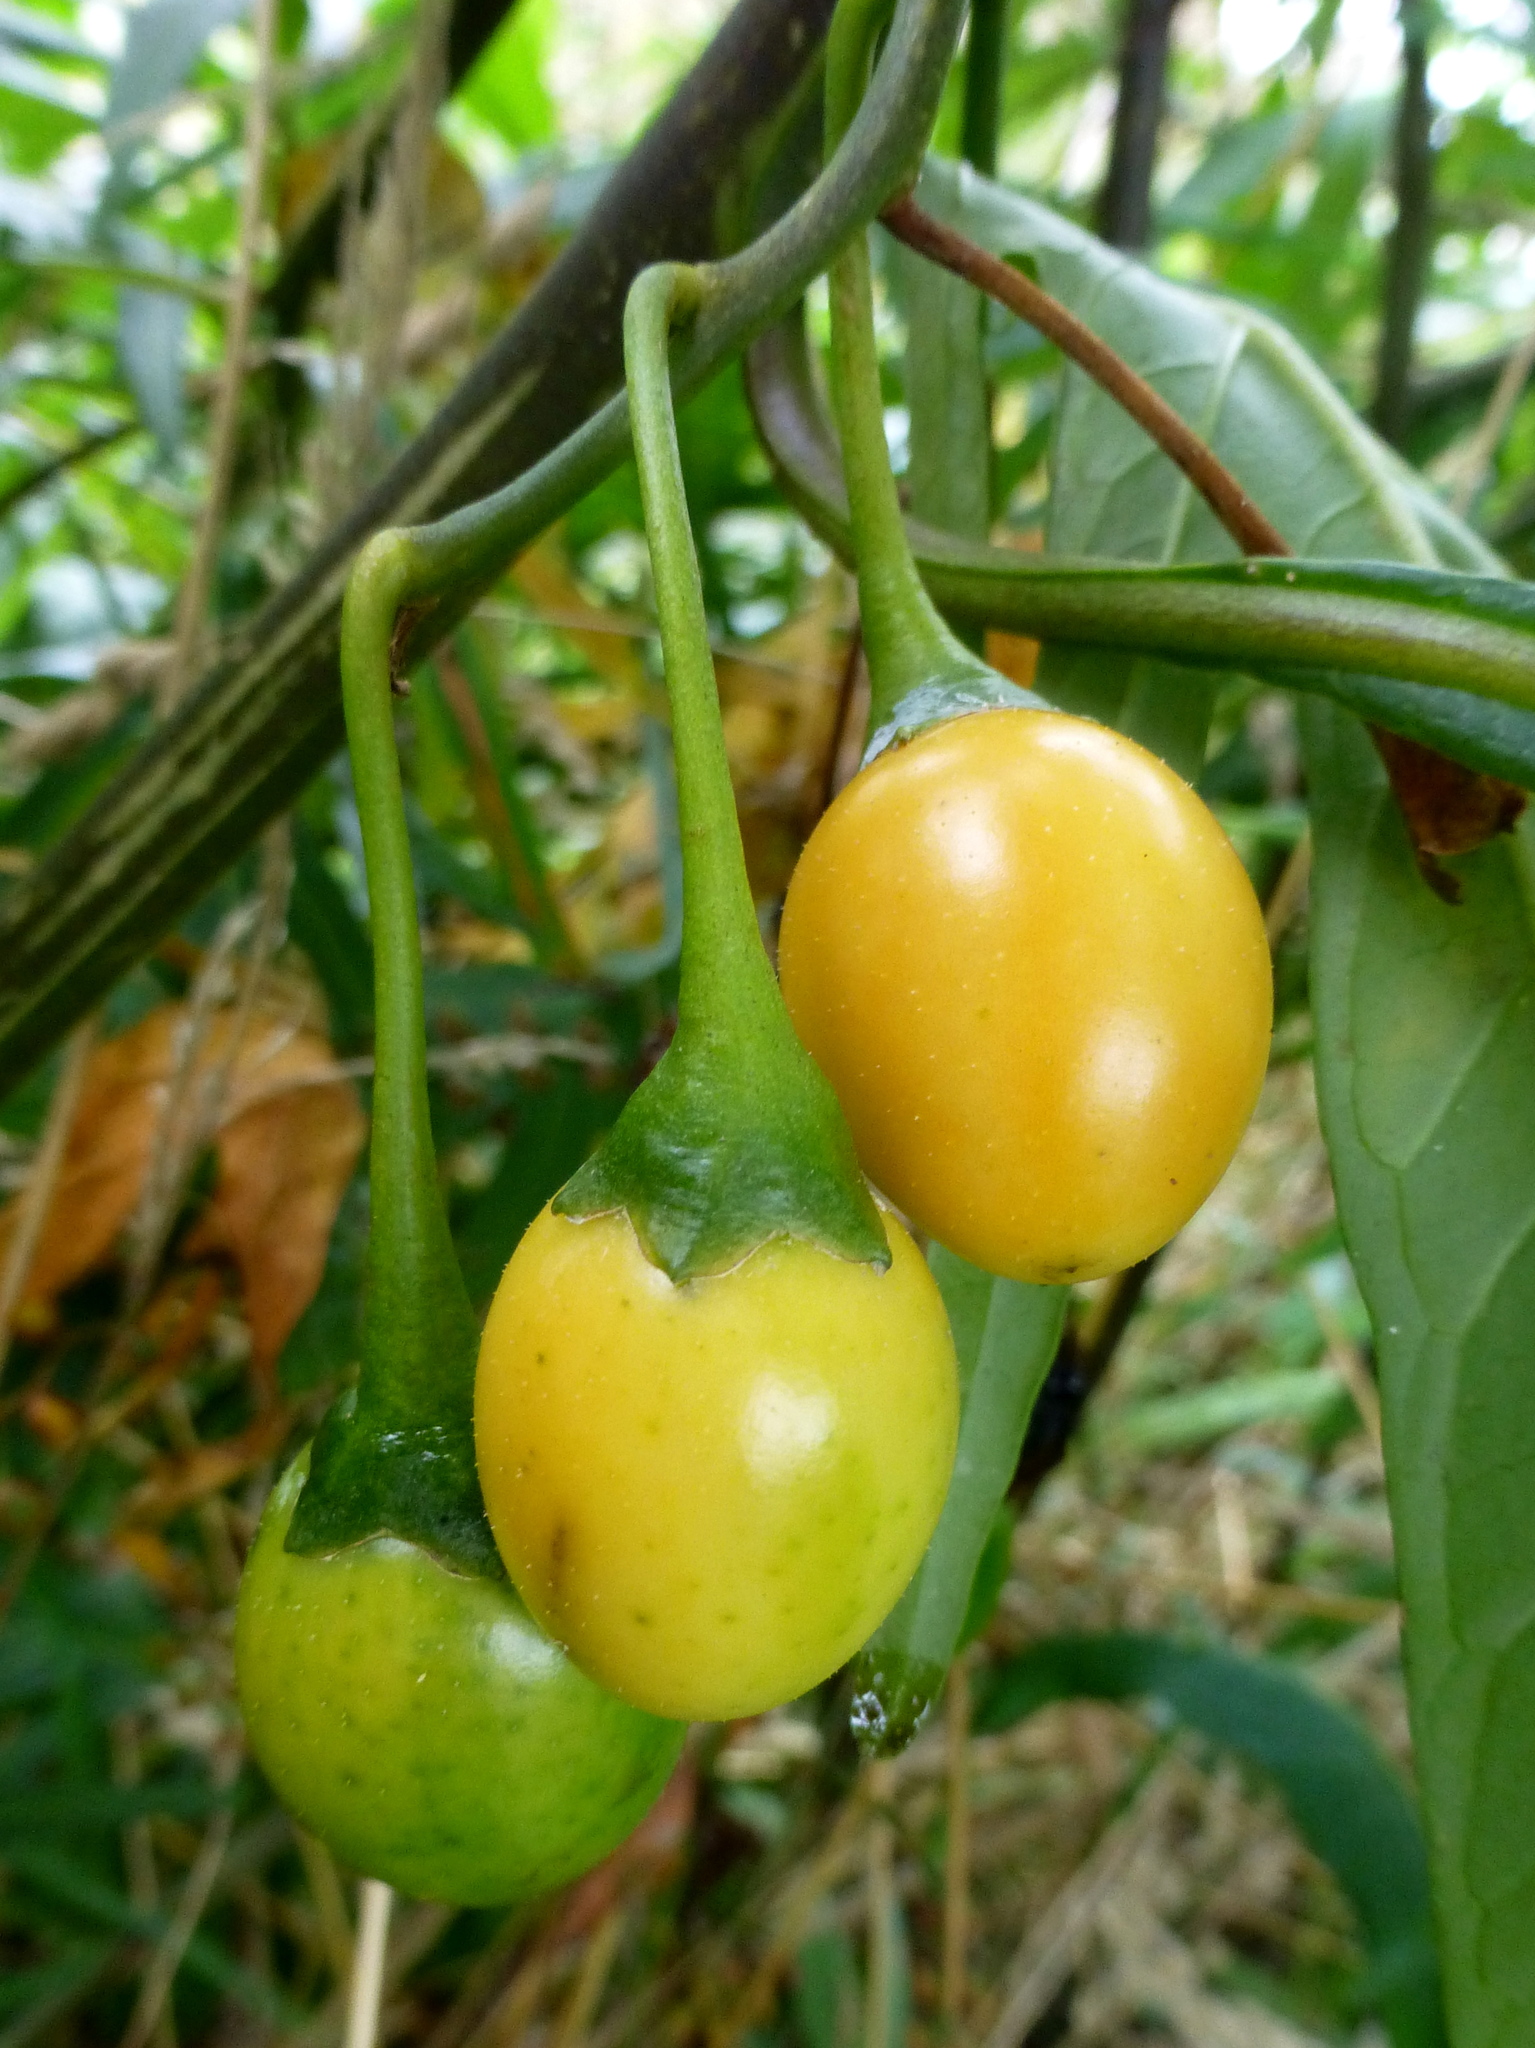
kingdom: Plantae
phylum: Tracheophyta
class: Magnoliopsida
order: Solanales
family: Solanaceae
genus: Solanum
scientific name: Solanum laciniatum
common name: Kangaroo-apple
